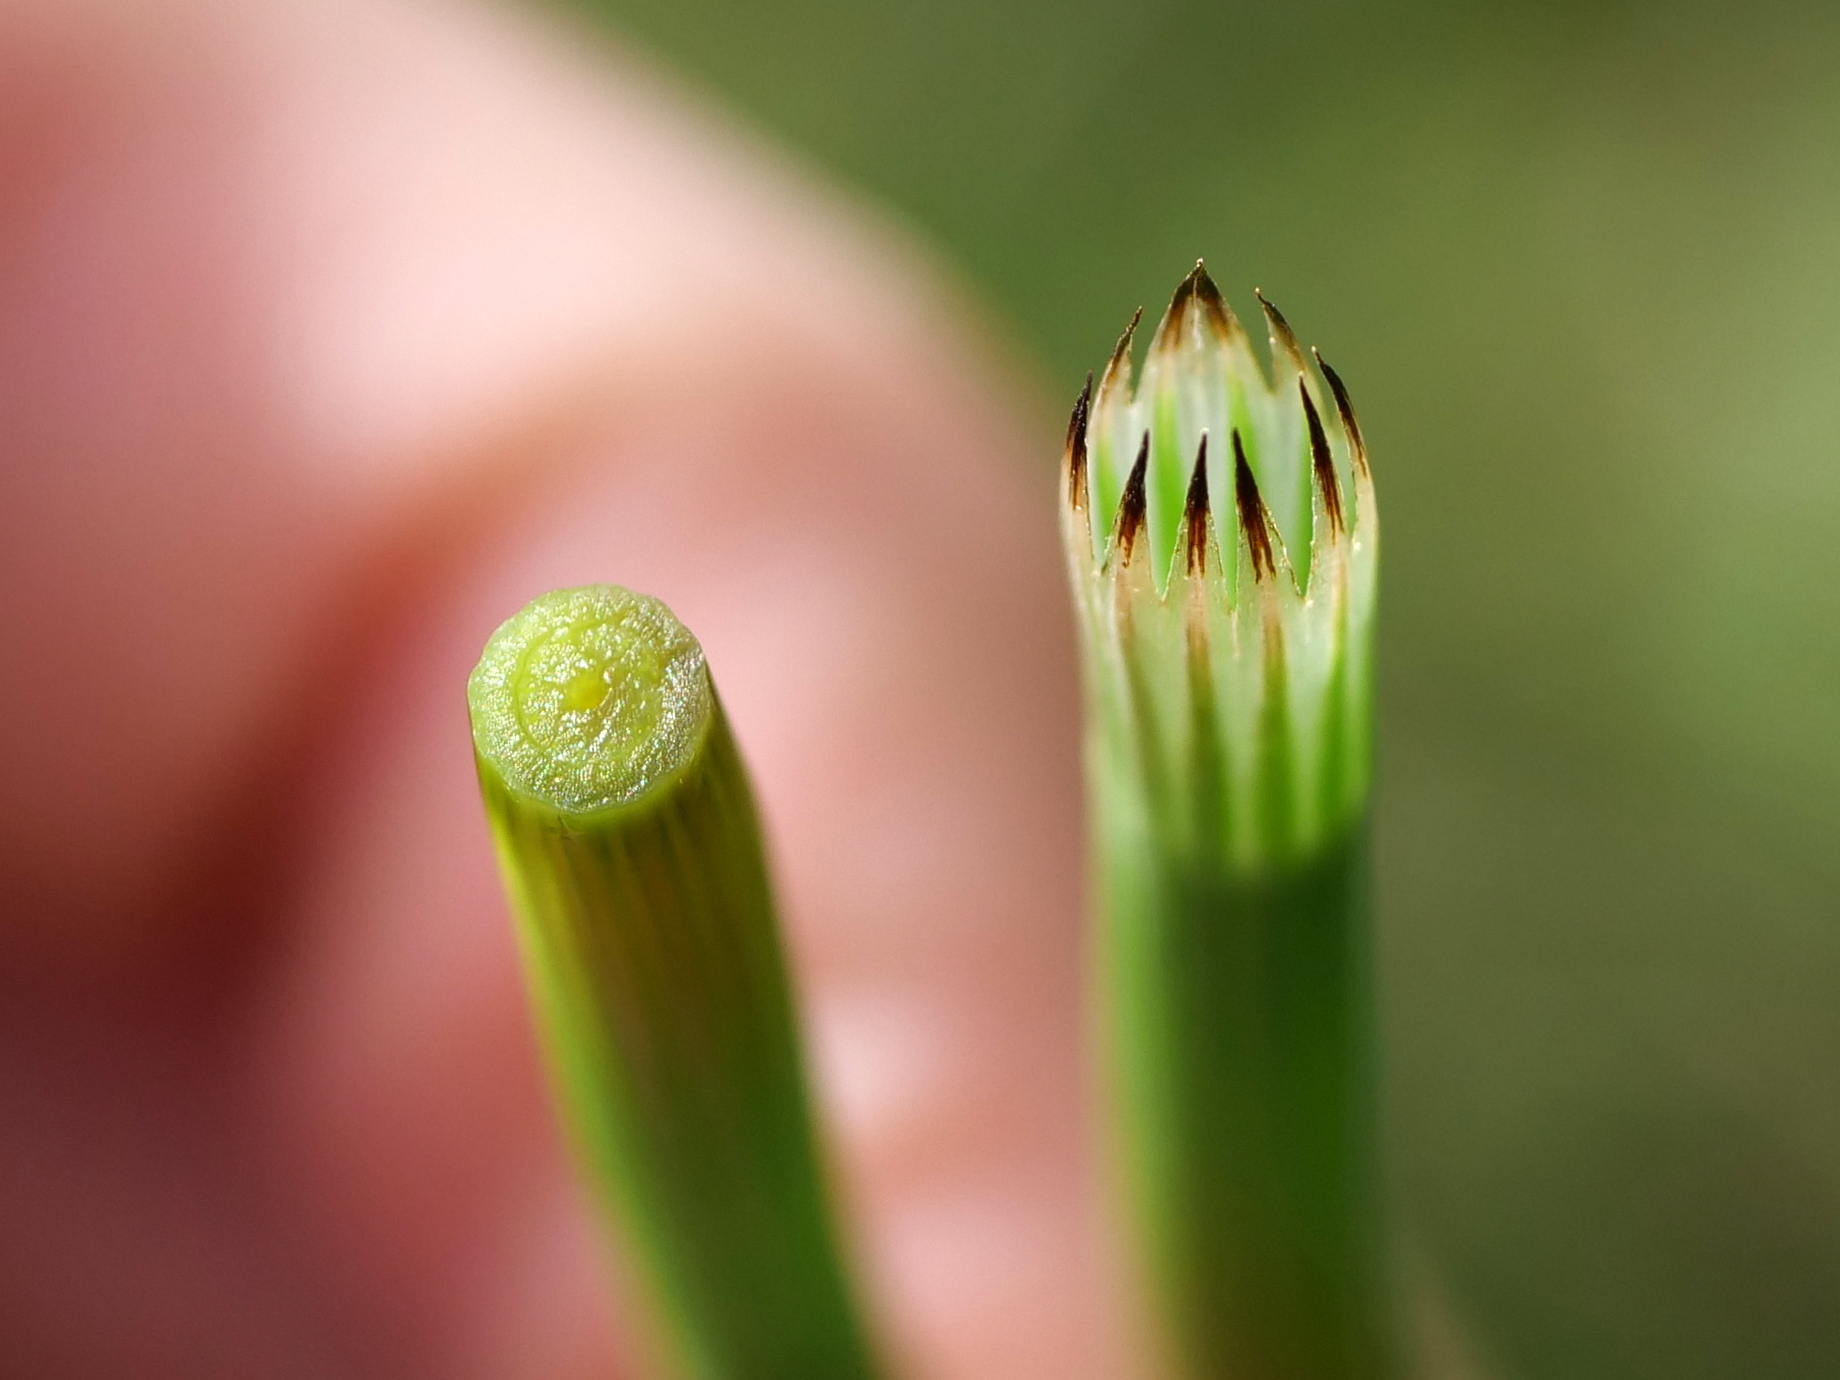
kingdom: Plantae
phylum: Tracheophyta
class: Polypodiopsida
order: Equisetales
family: Equisetaceae
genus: Equisetum
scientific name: Equisetum arvense
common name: Field horsetail
